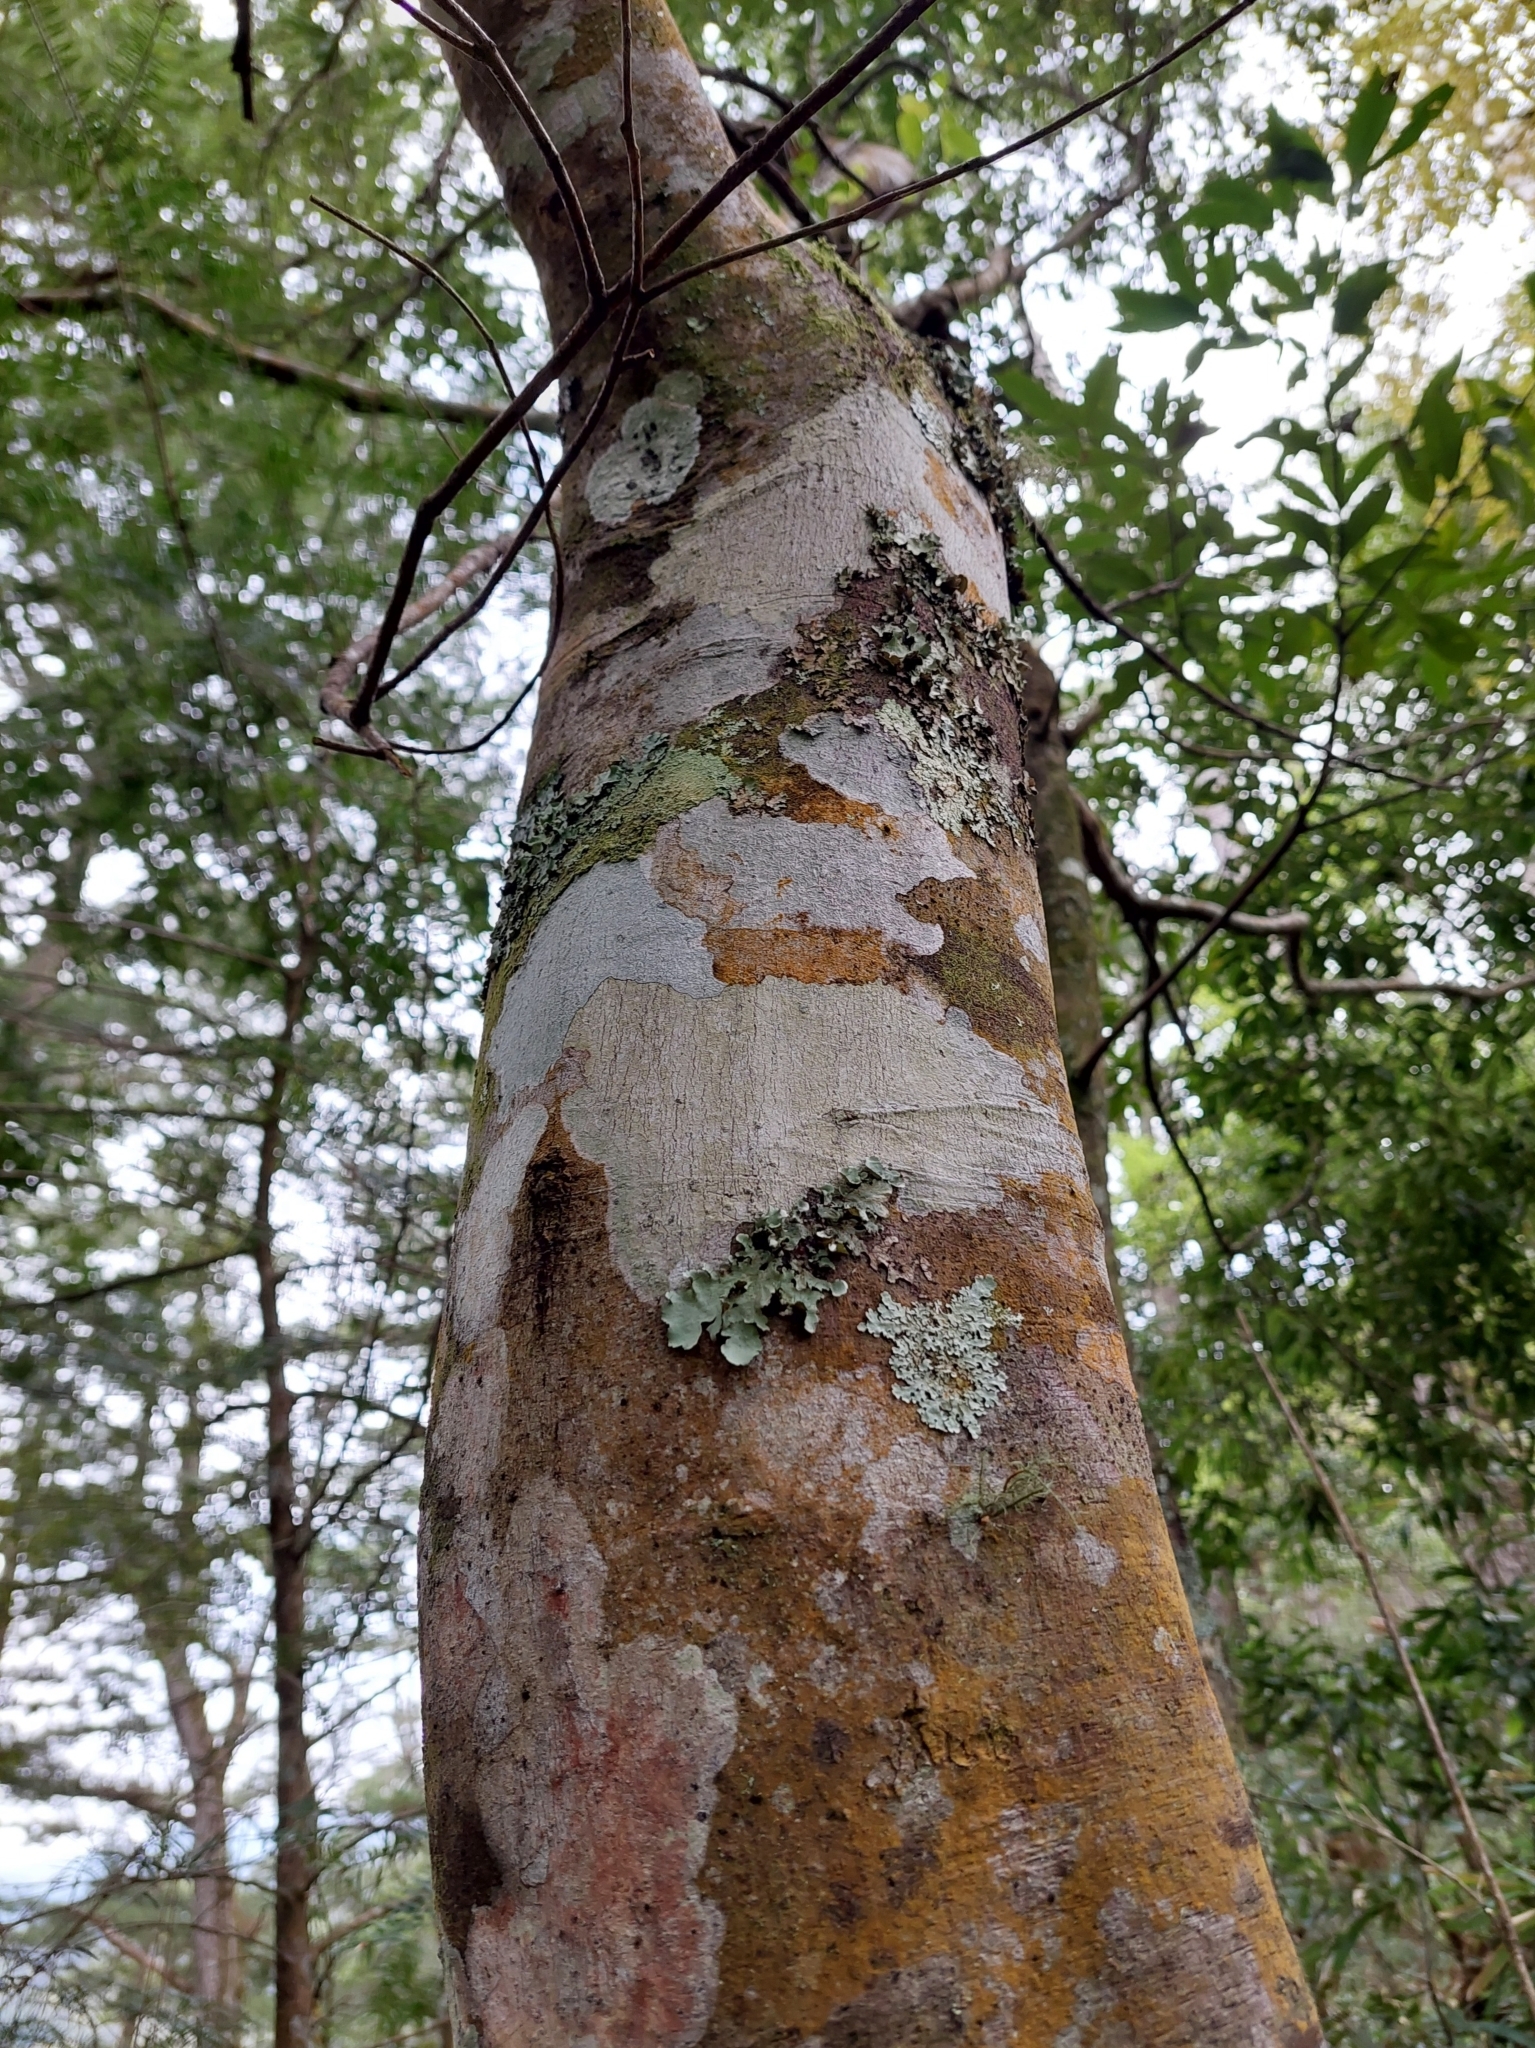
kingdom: Plantae
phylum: Tracheophyta
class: Magnoliopsida
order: Laurales
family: Lauraceae
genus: Cinnamomum
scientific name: Cinnamomum chekiangense
